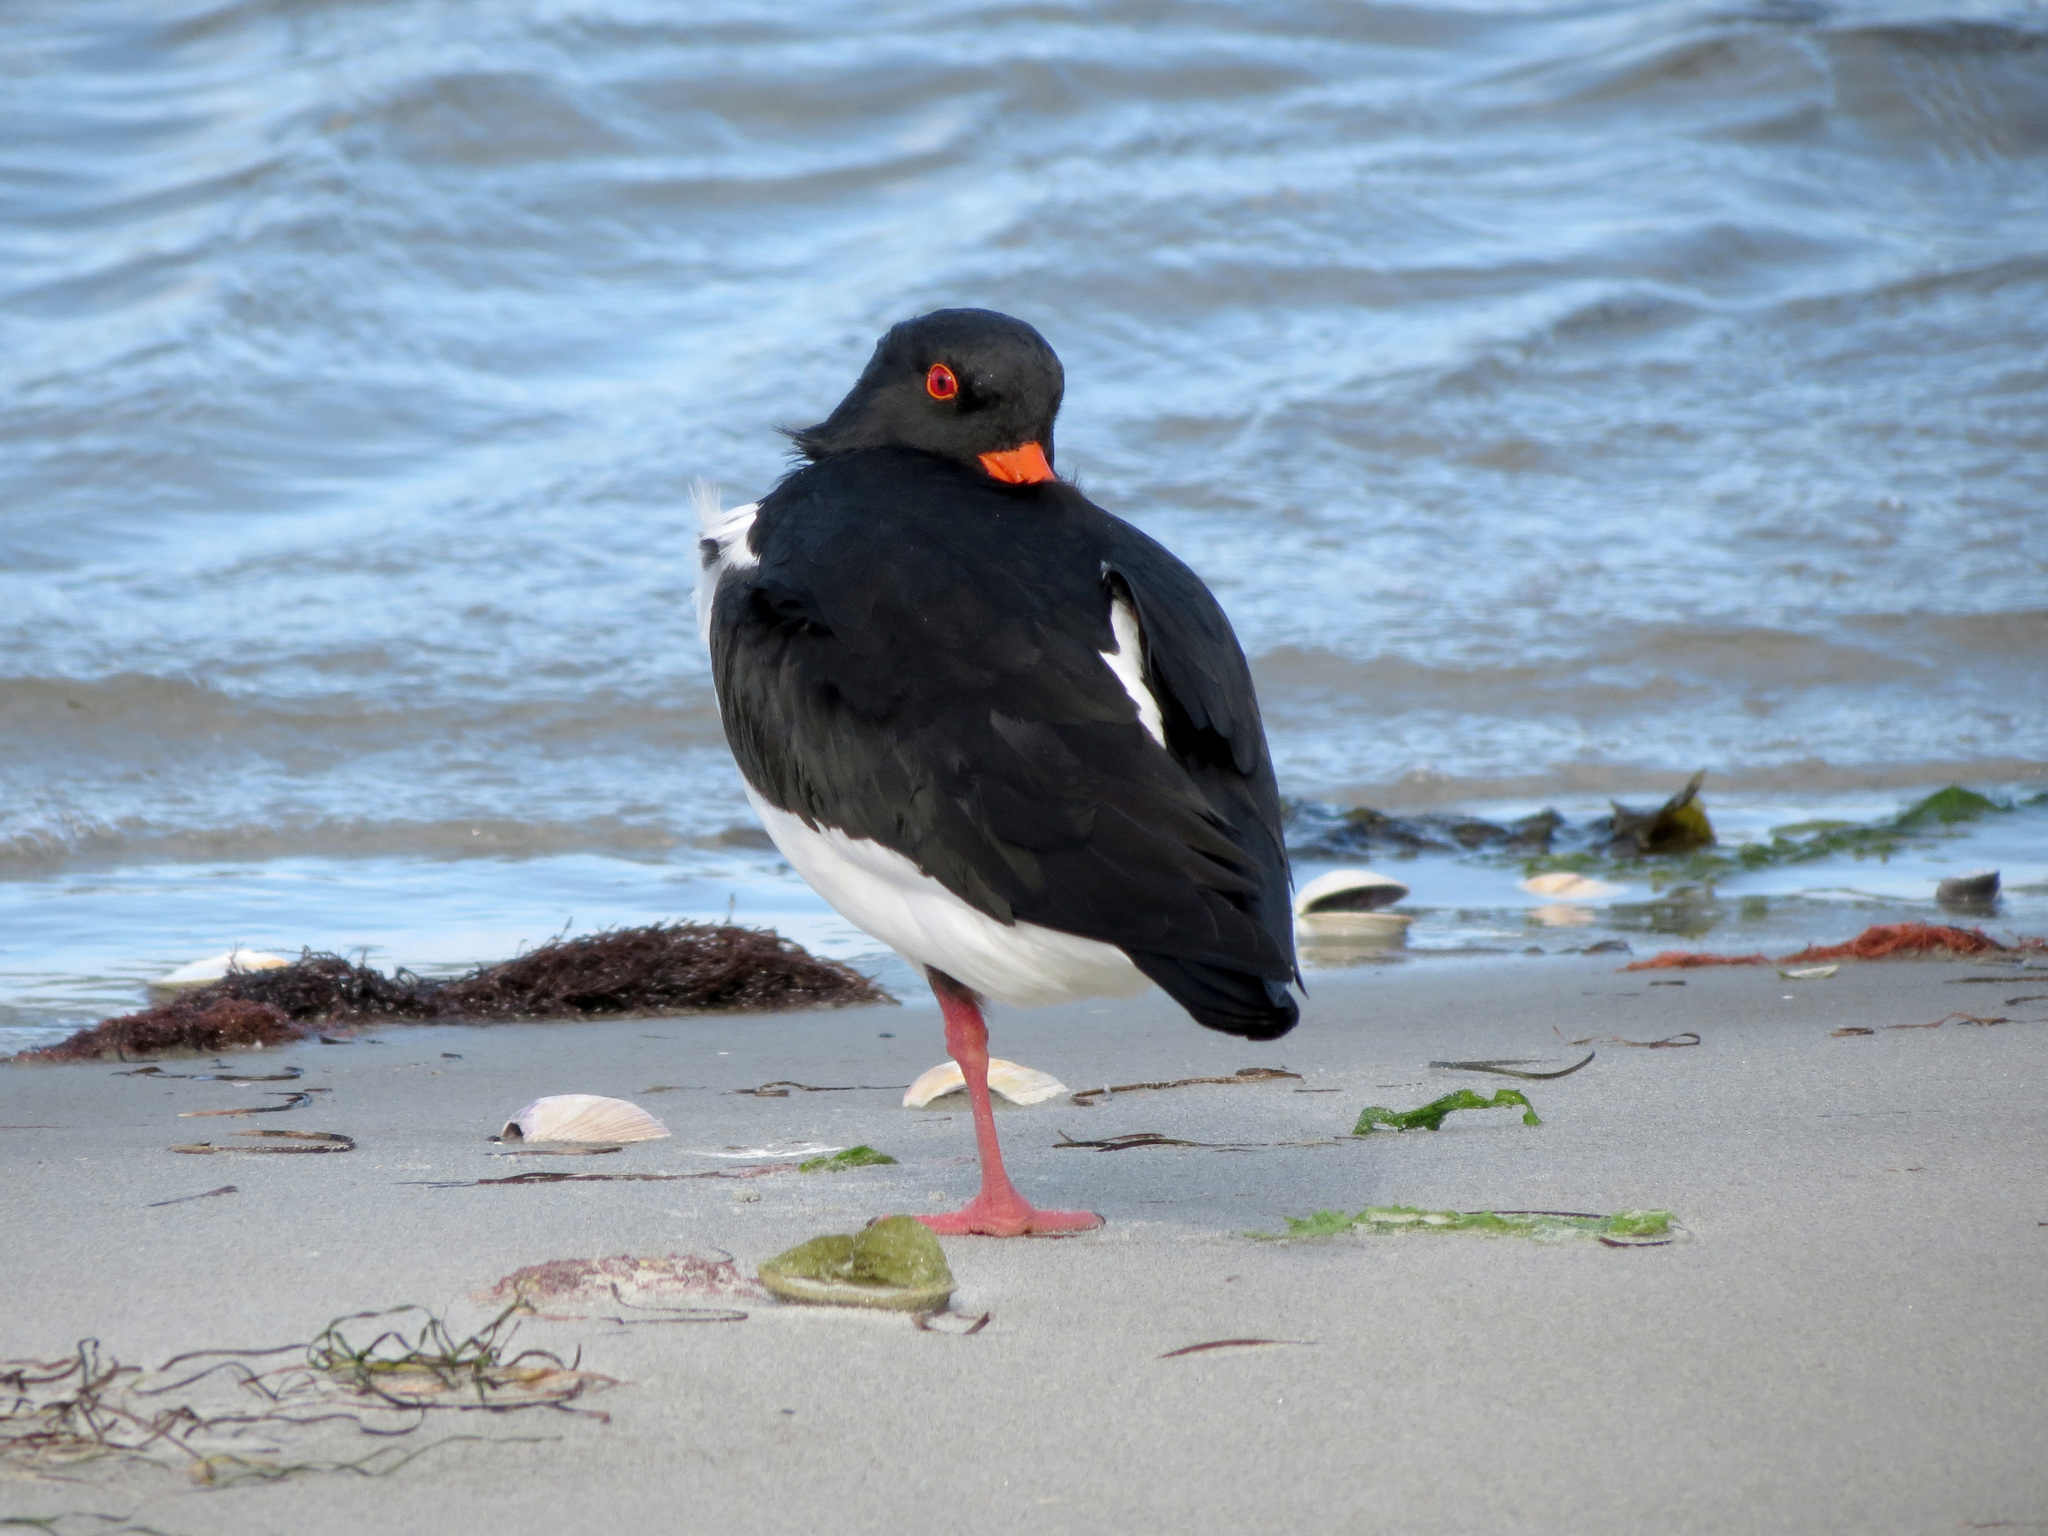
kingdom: Animalia
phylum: Chordata
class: Aves
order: Charadriiformes
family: Haematopodidae
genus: Haematopus
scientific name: Haematopus finschi
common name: South island oystercatcher
